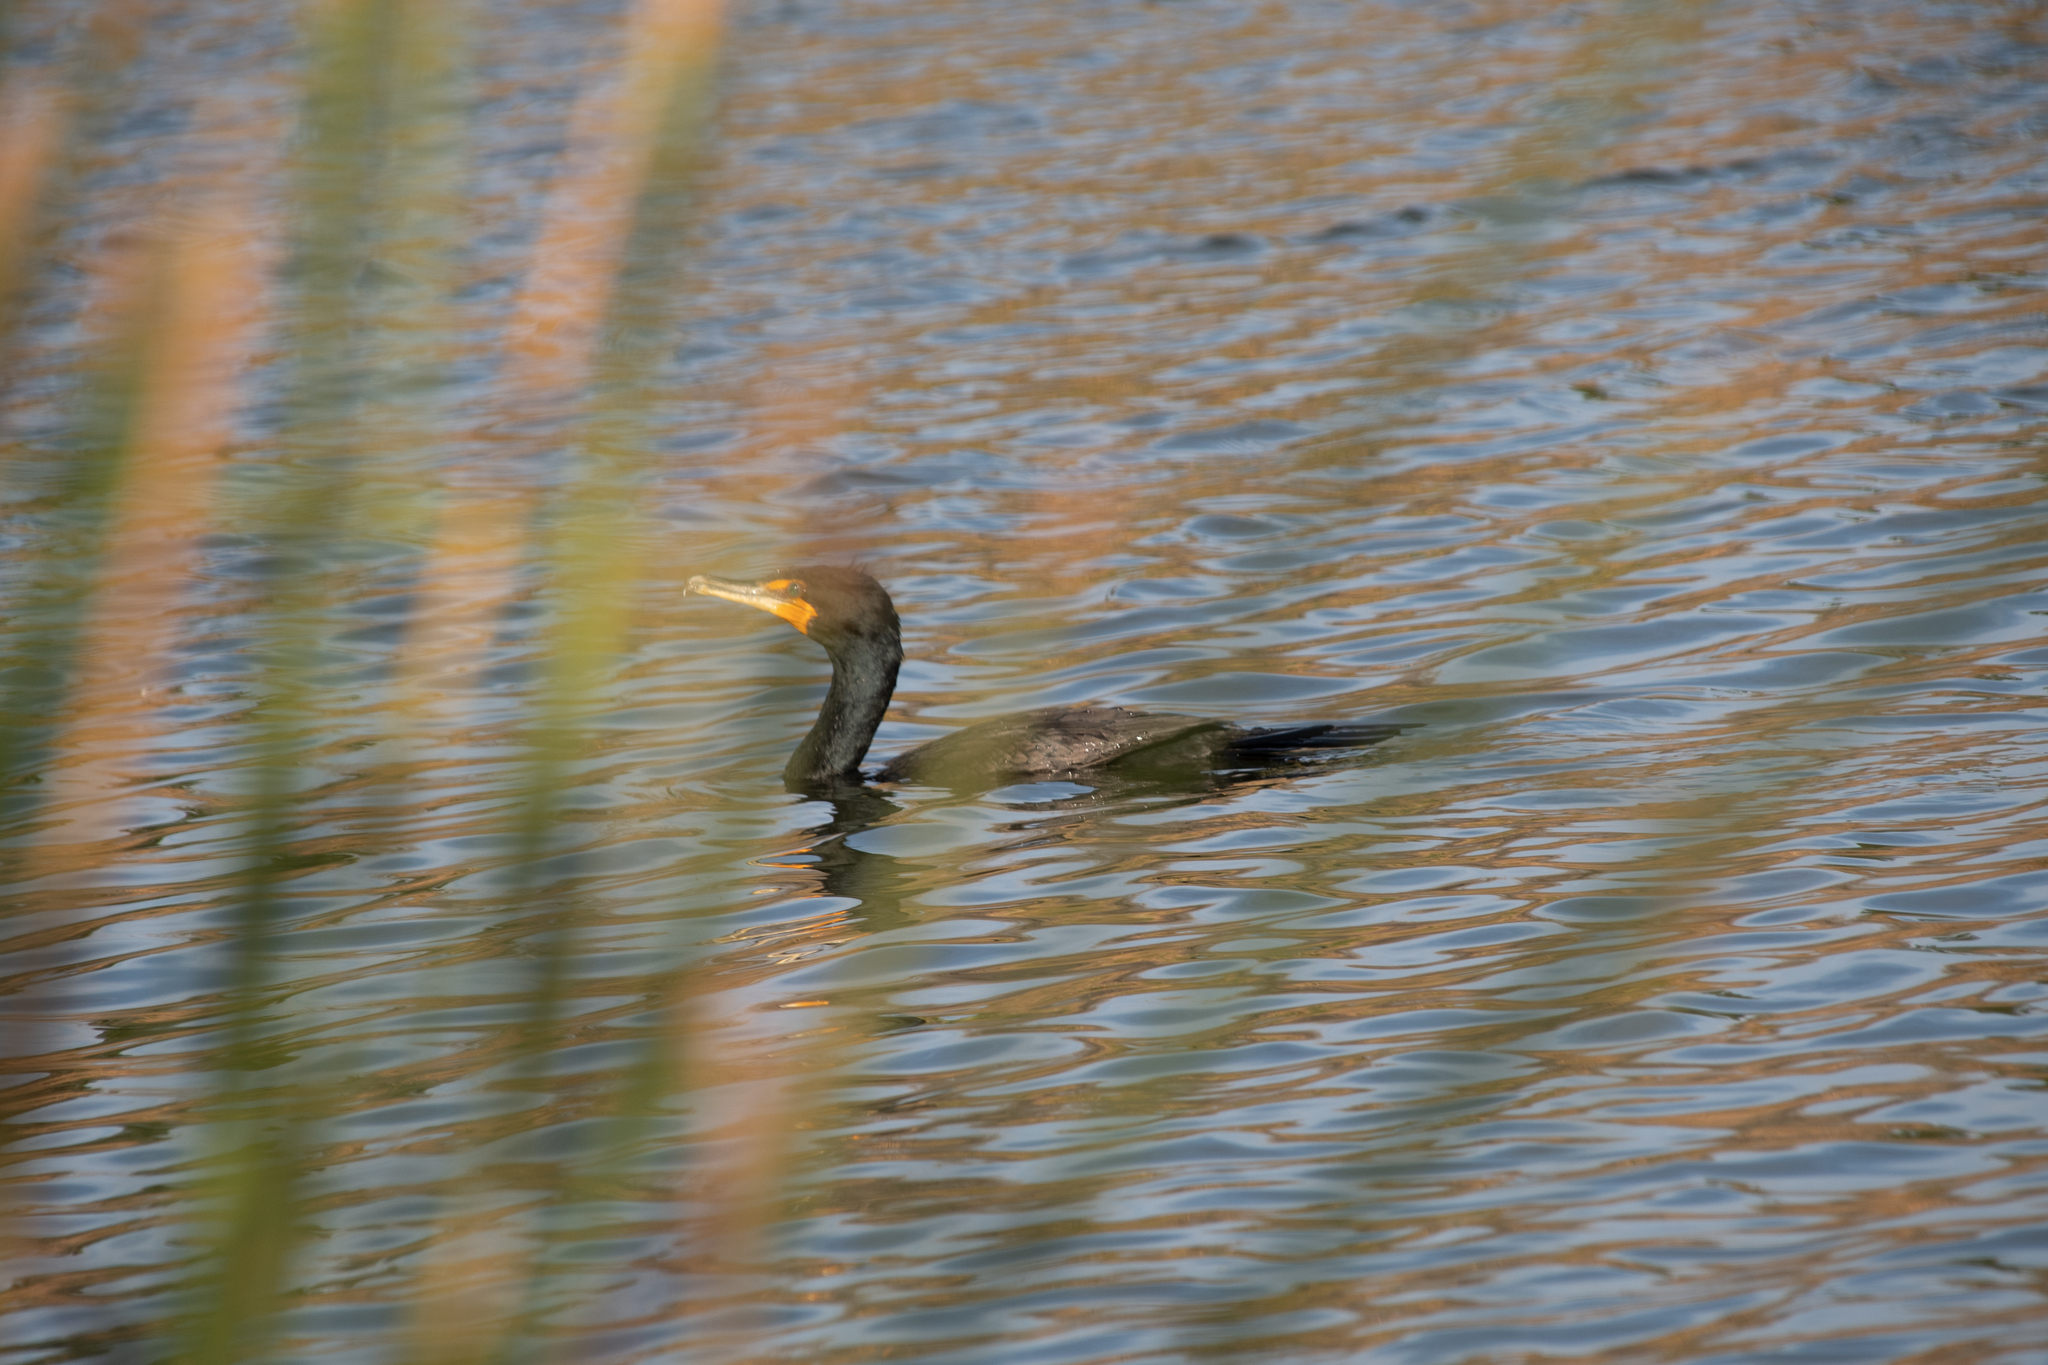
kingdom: Animalia
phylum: Chordata
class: Aves
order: Suliformes
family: Phalacrocoracidae
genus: Phalacrocorax
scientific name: Phalacrocorax auritus
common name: Double-crested cormorant
